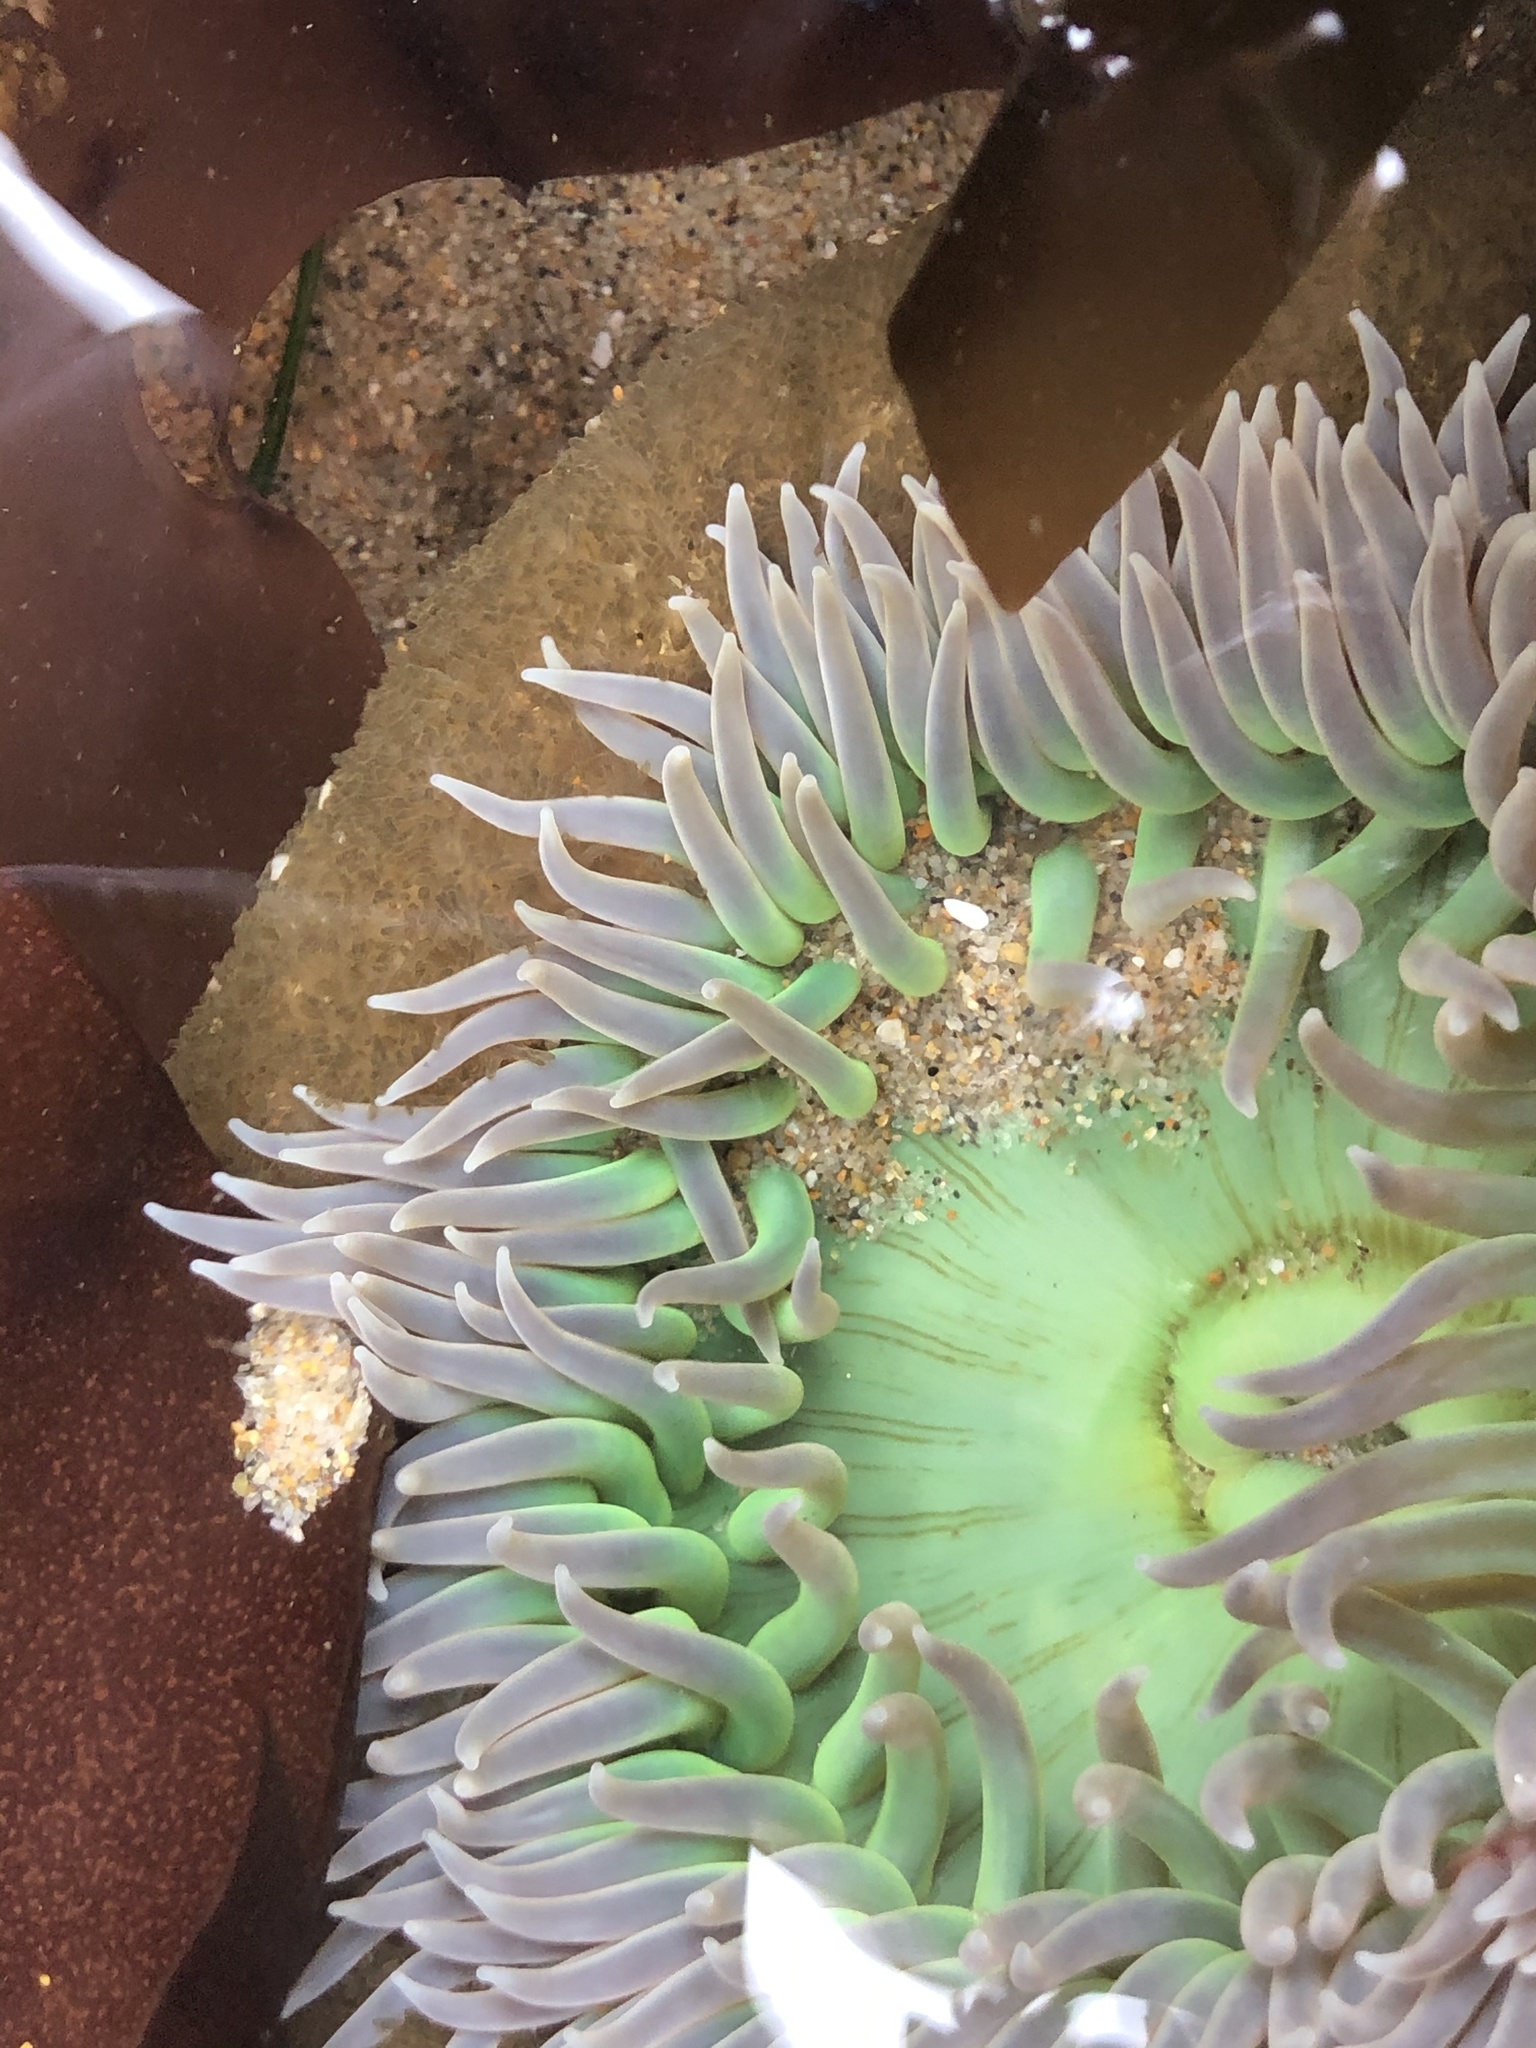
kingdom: Animalia
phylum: Cnidaria
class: Anthozoa
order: Actiniaria
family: Actiniidae
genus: Anthopleura
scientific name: Anthopleura xanthogrammica
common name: Giant green anemone
